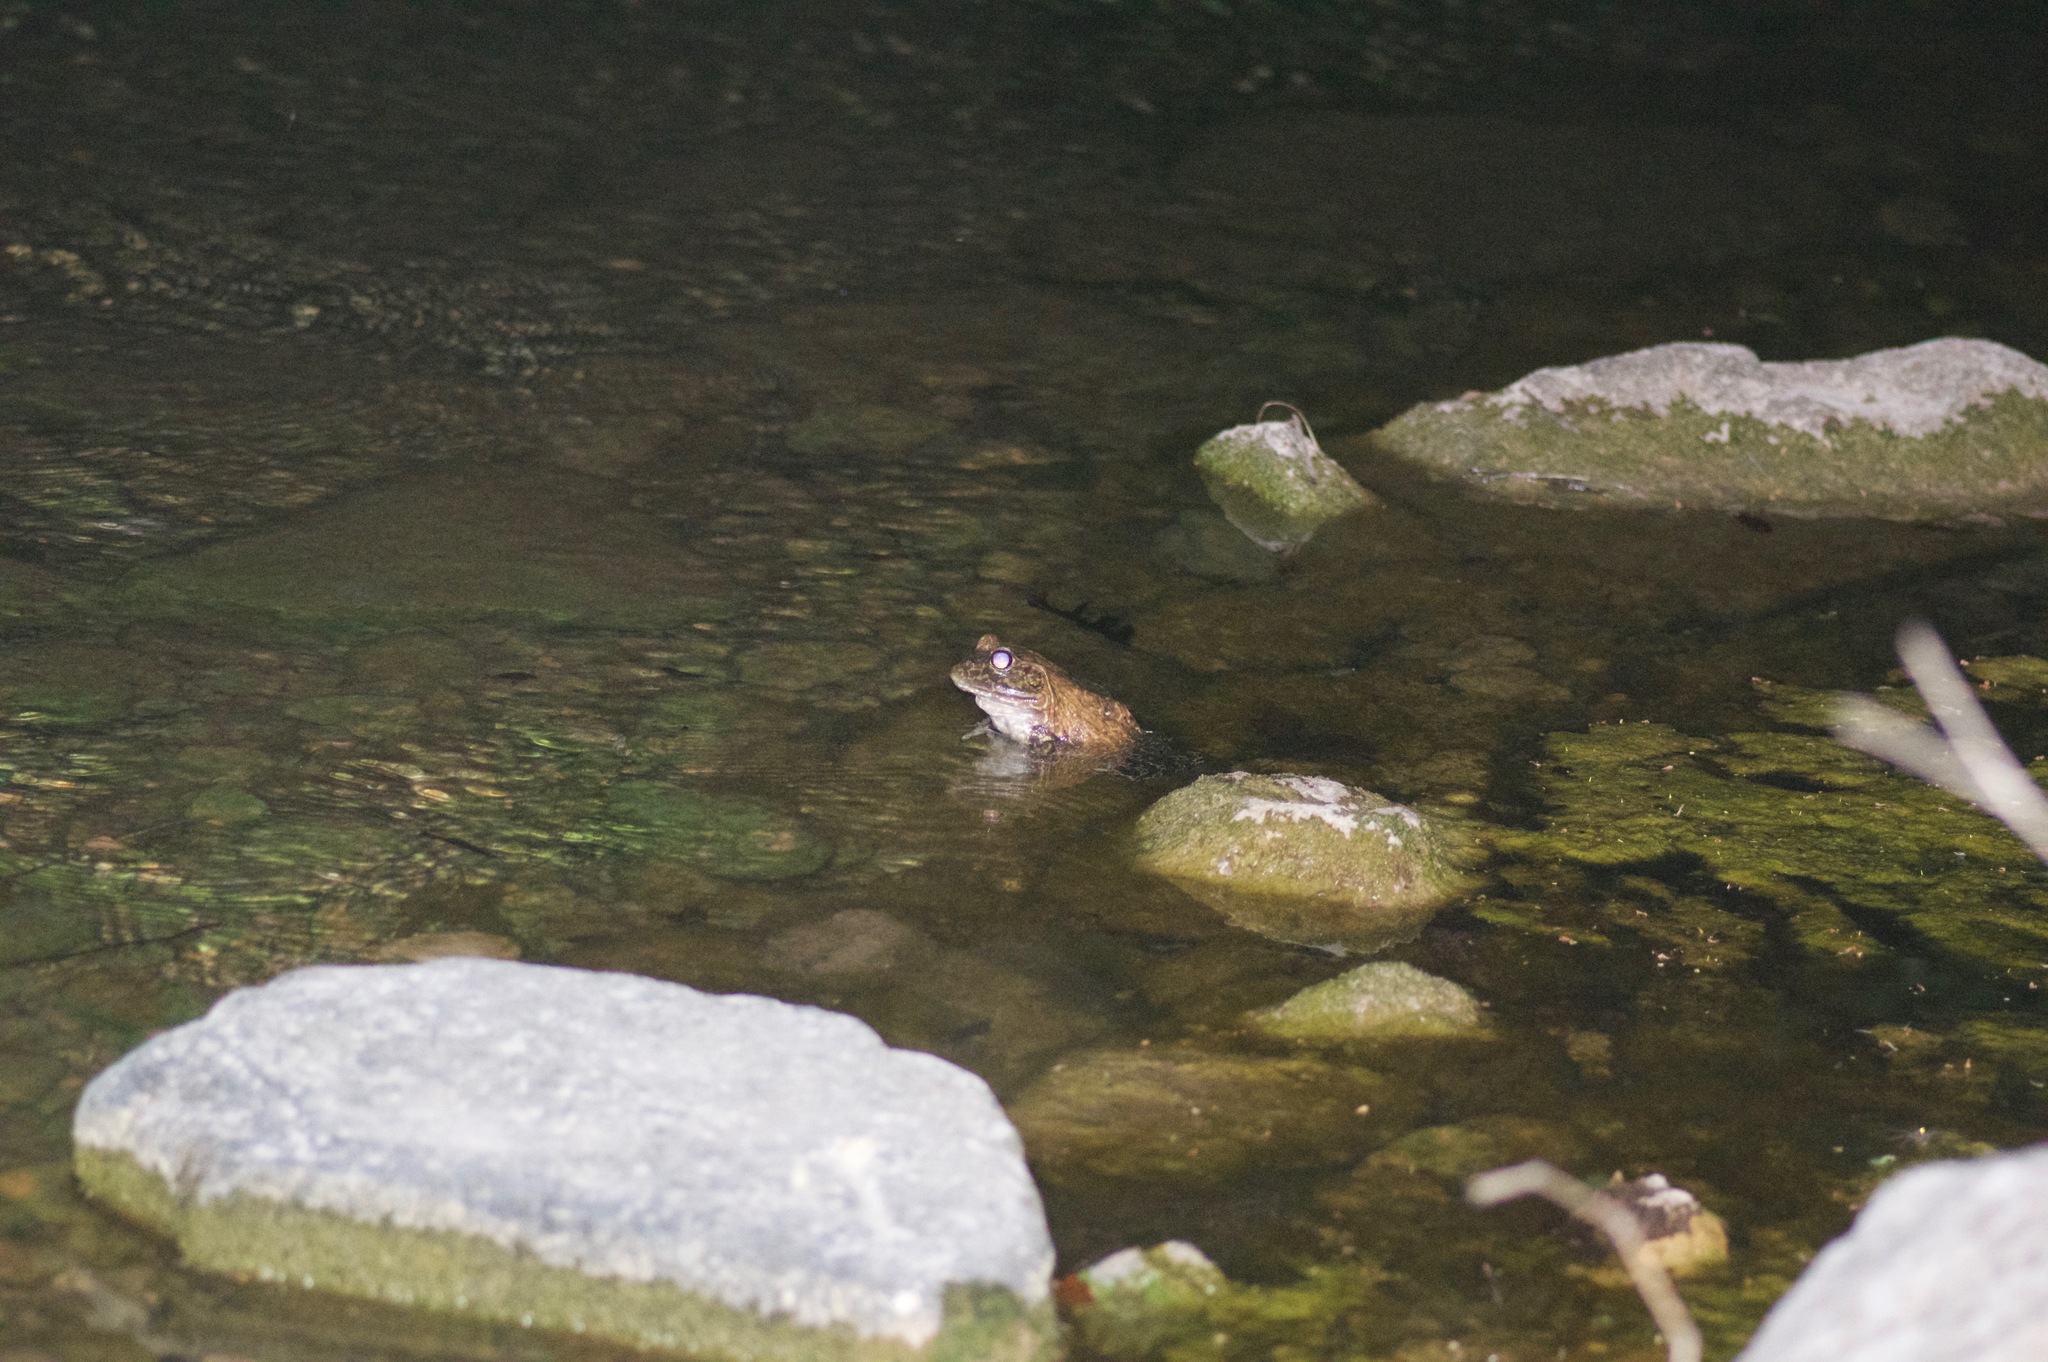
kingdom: Animalia
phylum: Chordata
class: Amphibia
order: Anura
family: Ranidae
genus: Lithobates
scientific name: Lithobates catesbeianus
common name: American bullfrog
